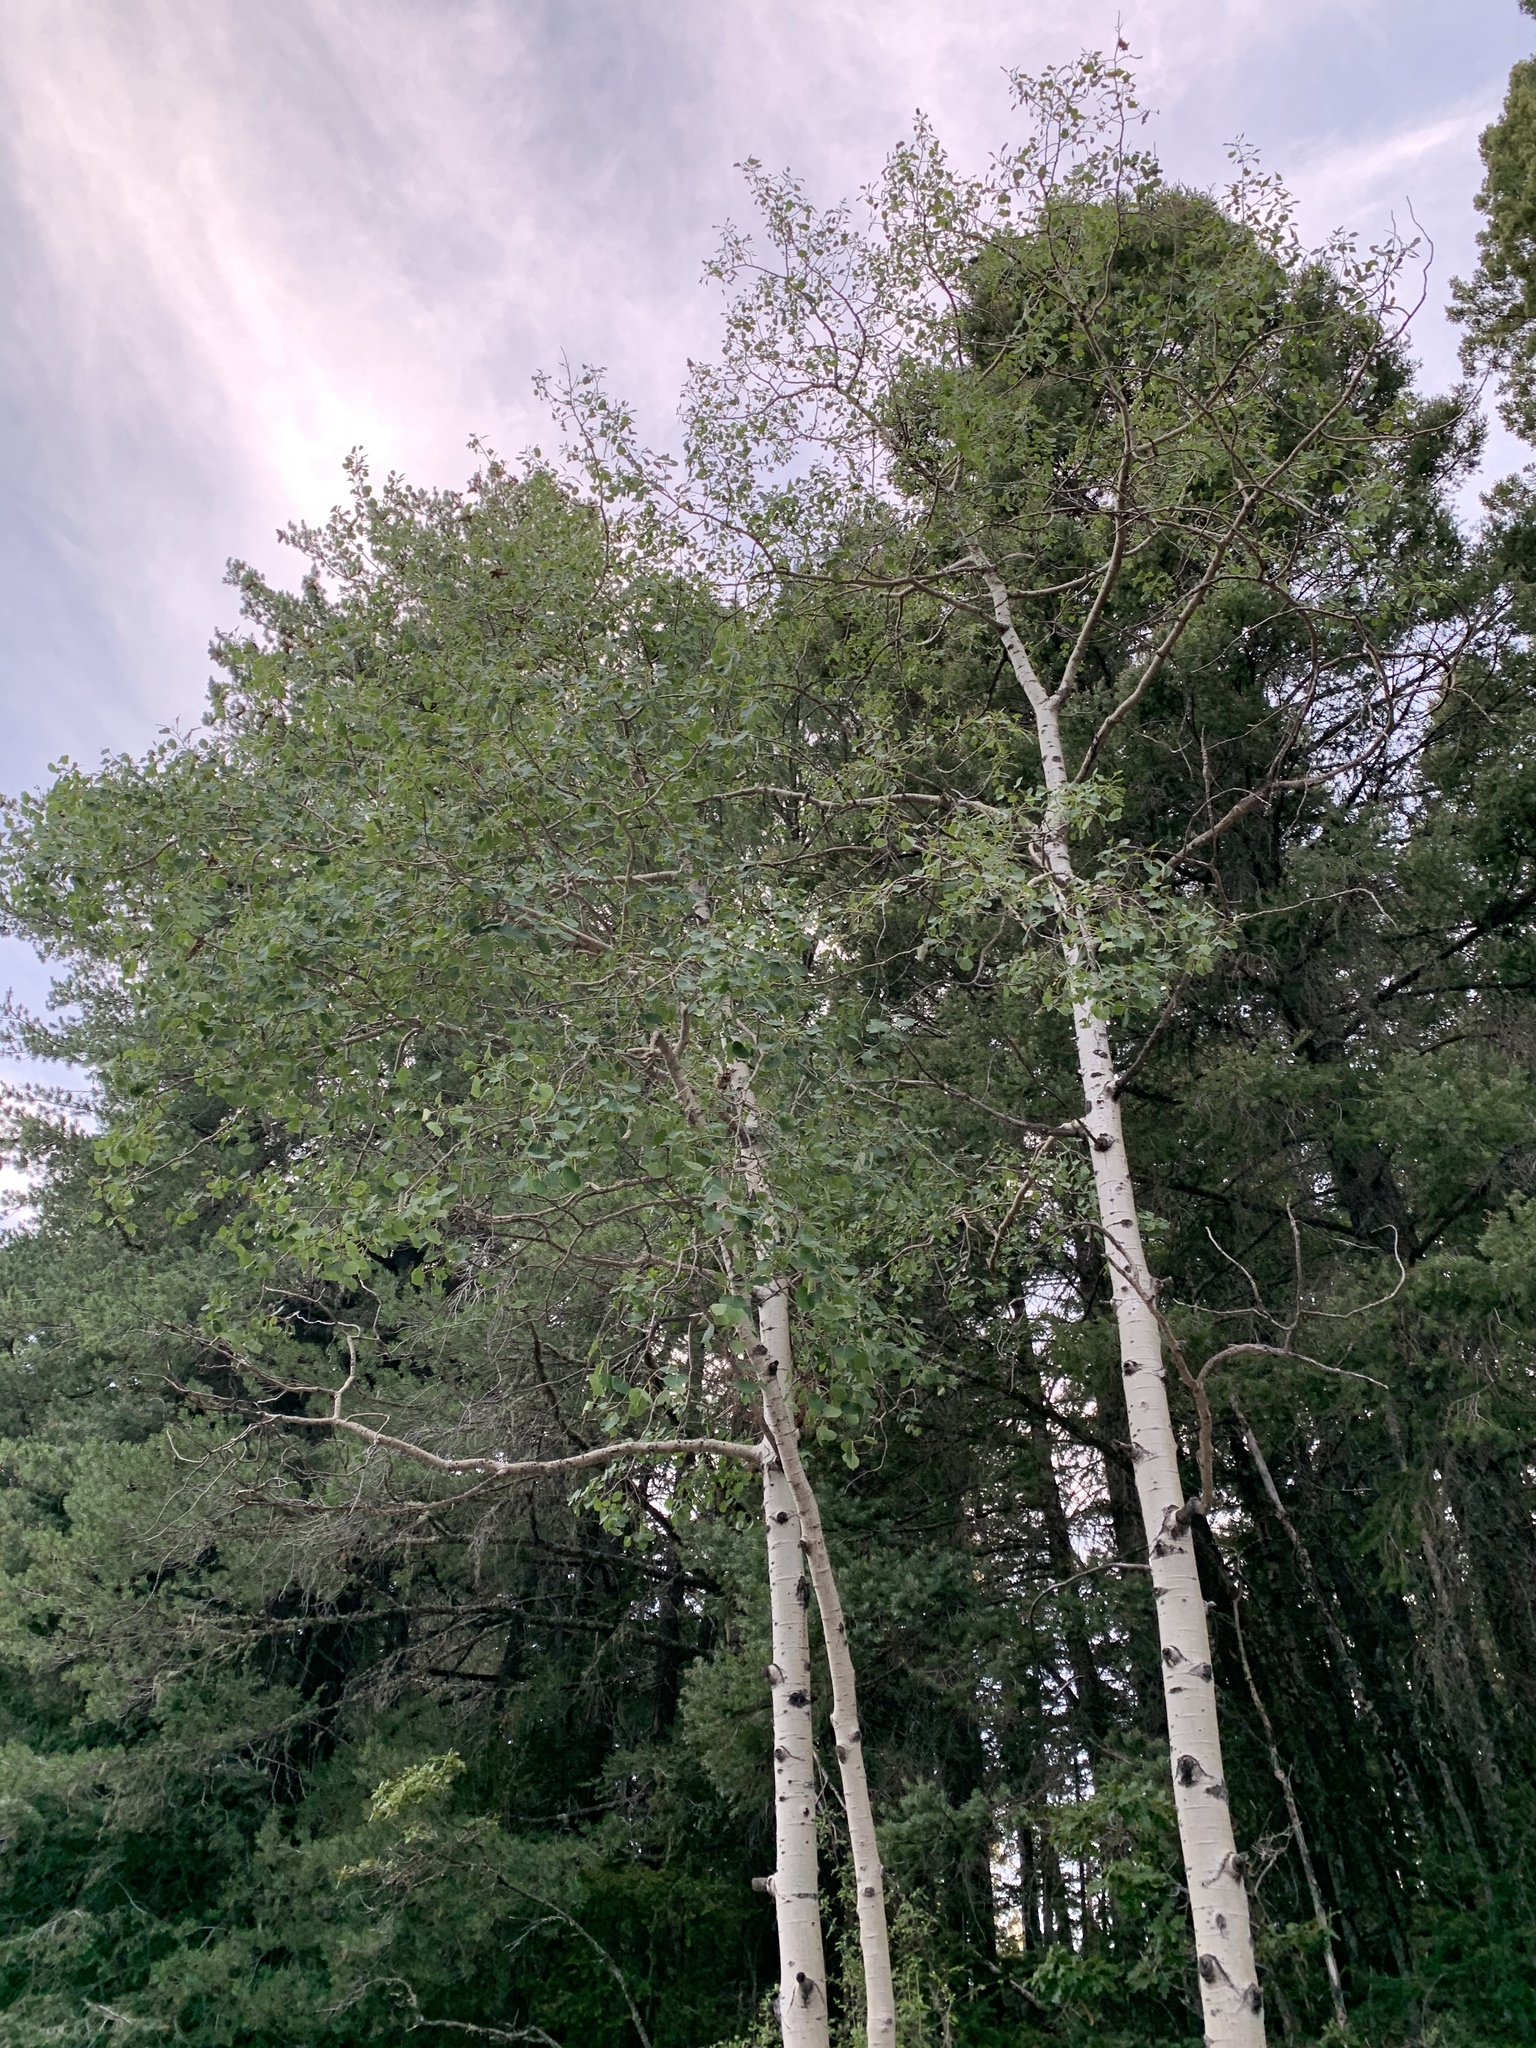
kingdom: Plantae
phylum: Tracheophyta
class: Magnoliopsida
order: Malpighiales
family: Salicaceae
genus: Populus
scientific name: Populus tremuloides
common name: Quaking aspen
